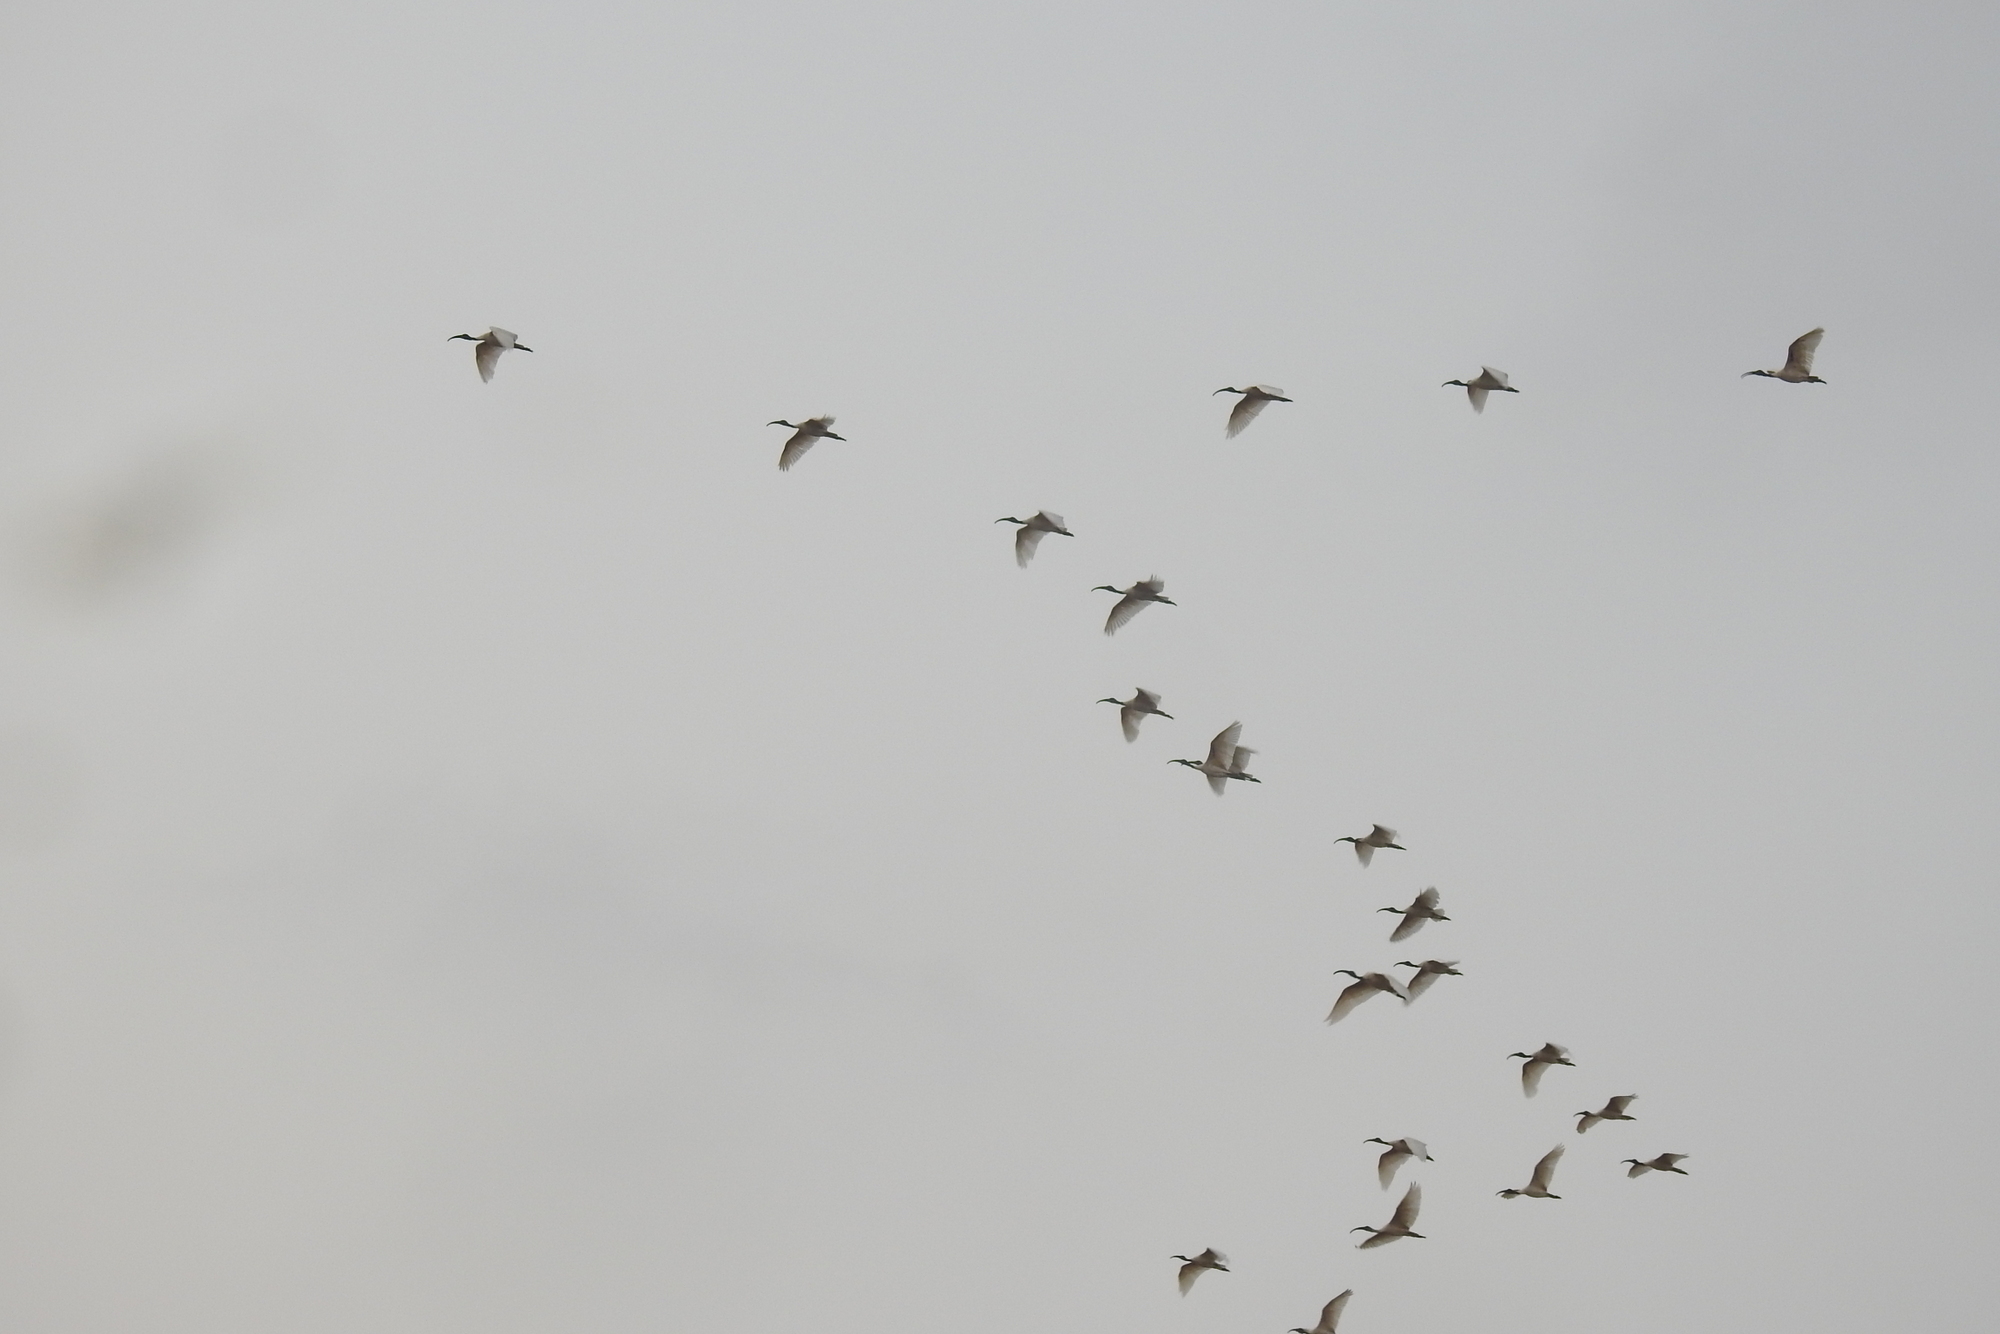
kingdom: Animalia
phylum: Chordata
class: Aves
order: Pelecaniformes
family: Threskiornithidae
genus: Threskiornis
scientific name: Threskiornis melanocephalus
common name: Black-headed ibis
